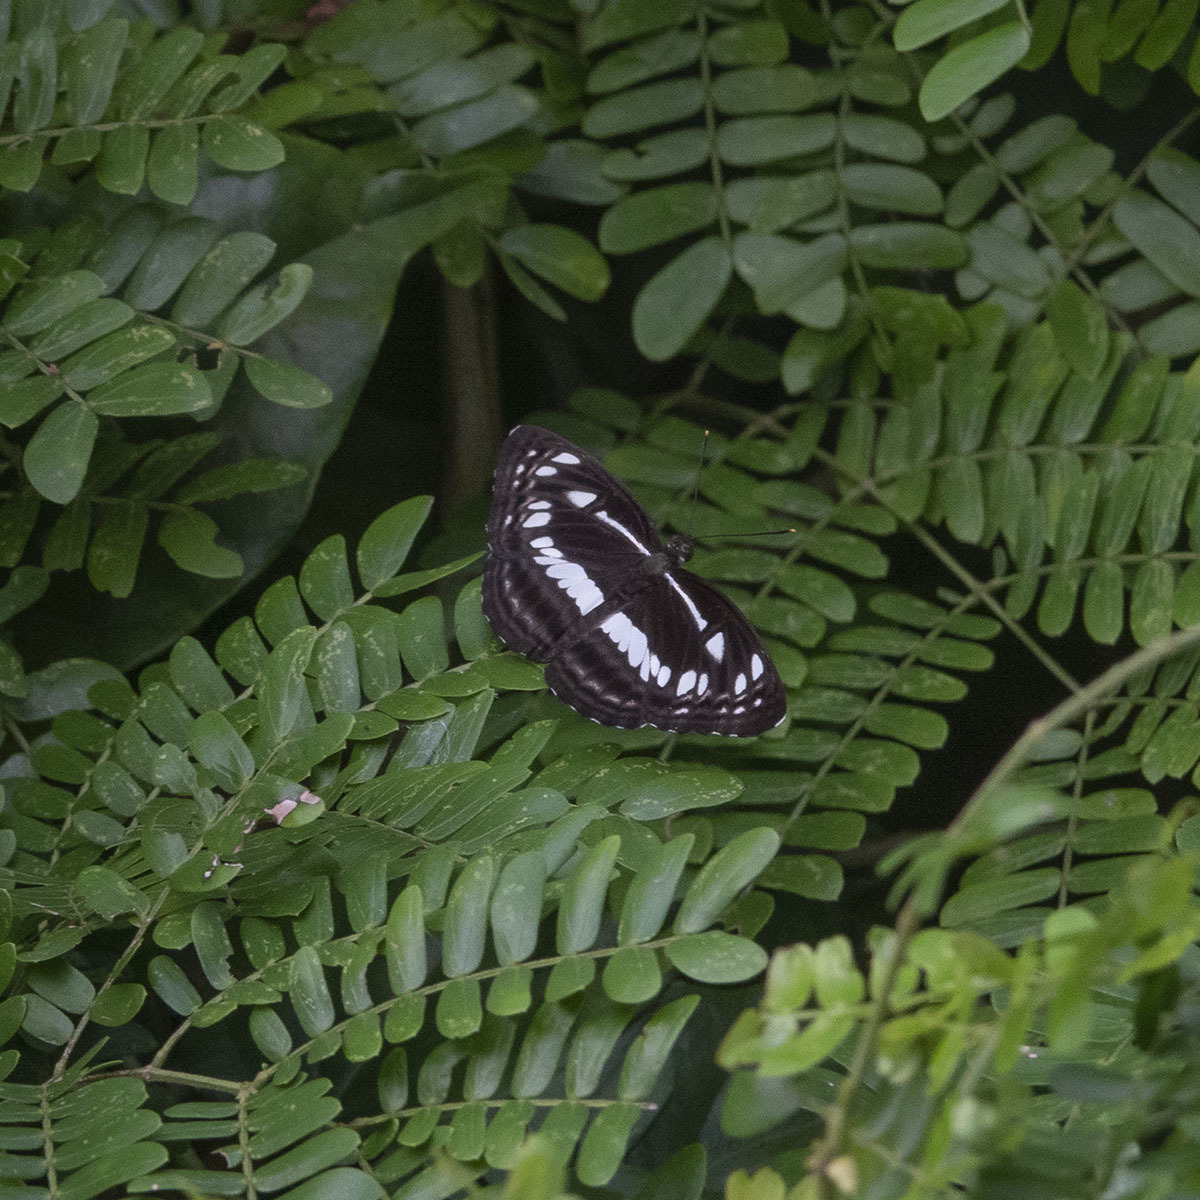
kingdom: Animalia
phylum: Arthropoda
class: Insecta
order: Lepidoptera
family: Nymphalidae
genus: Neptis
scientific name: Neptis jumbah
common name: Chestnut-streaked sailer
